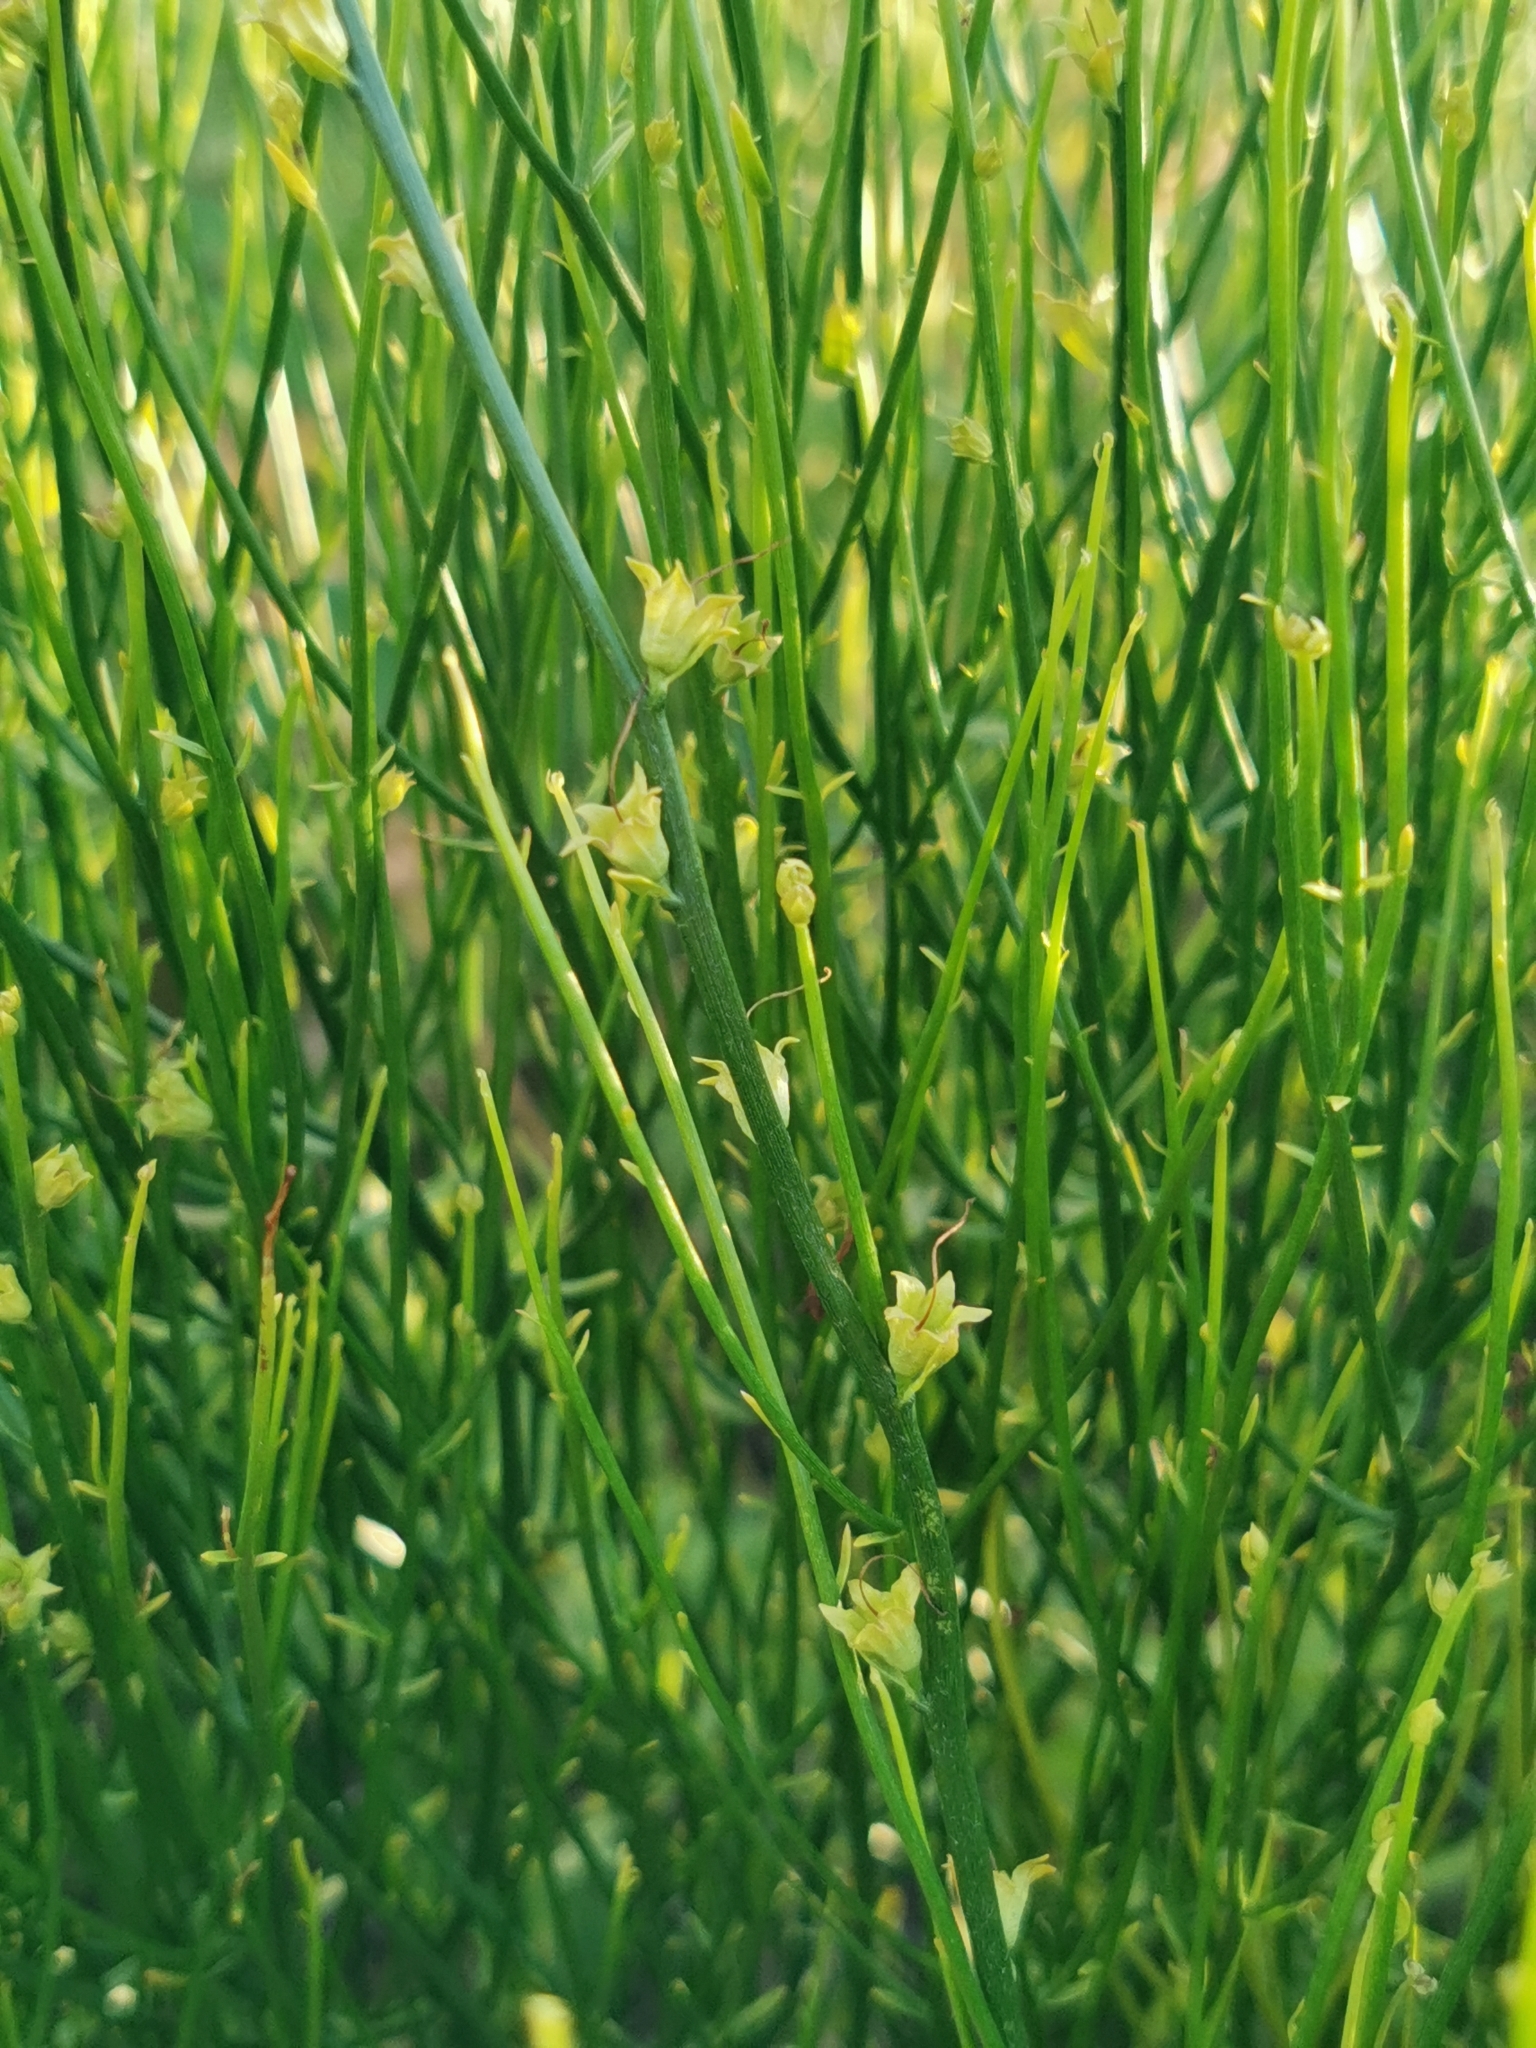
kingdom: Plantae
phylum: Tracheophyta
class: Magnoliopsida
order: Lamiales
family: Mazaceae
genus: Dodartia
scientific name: Dodartia orientalis
